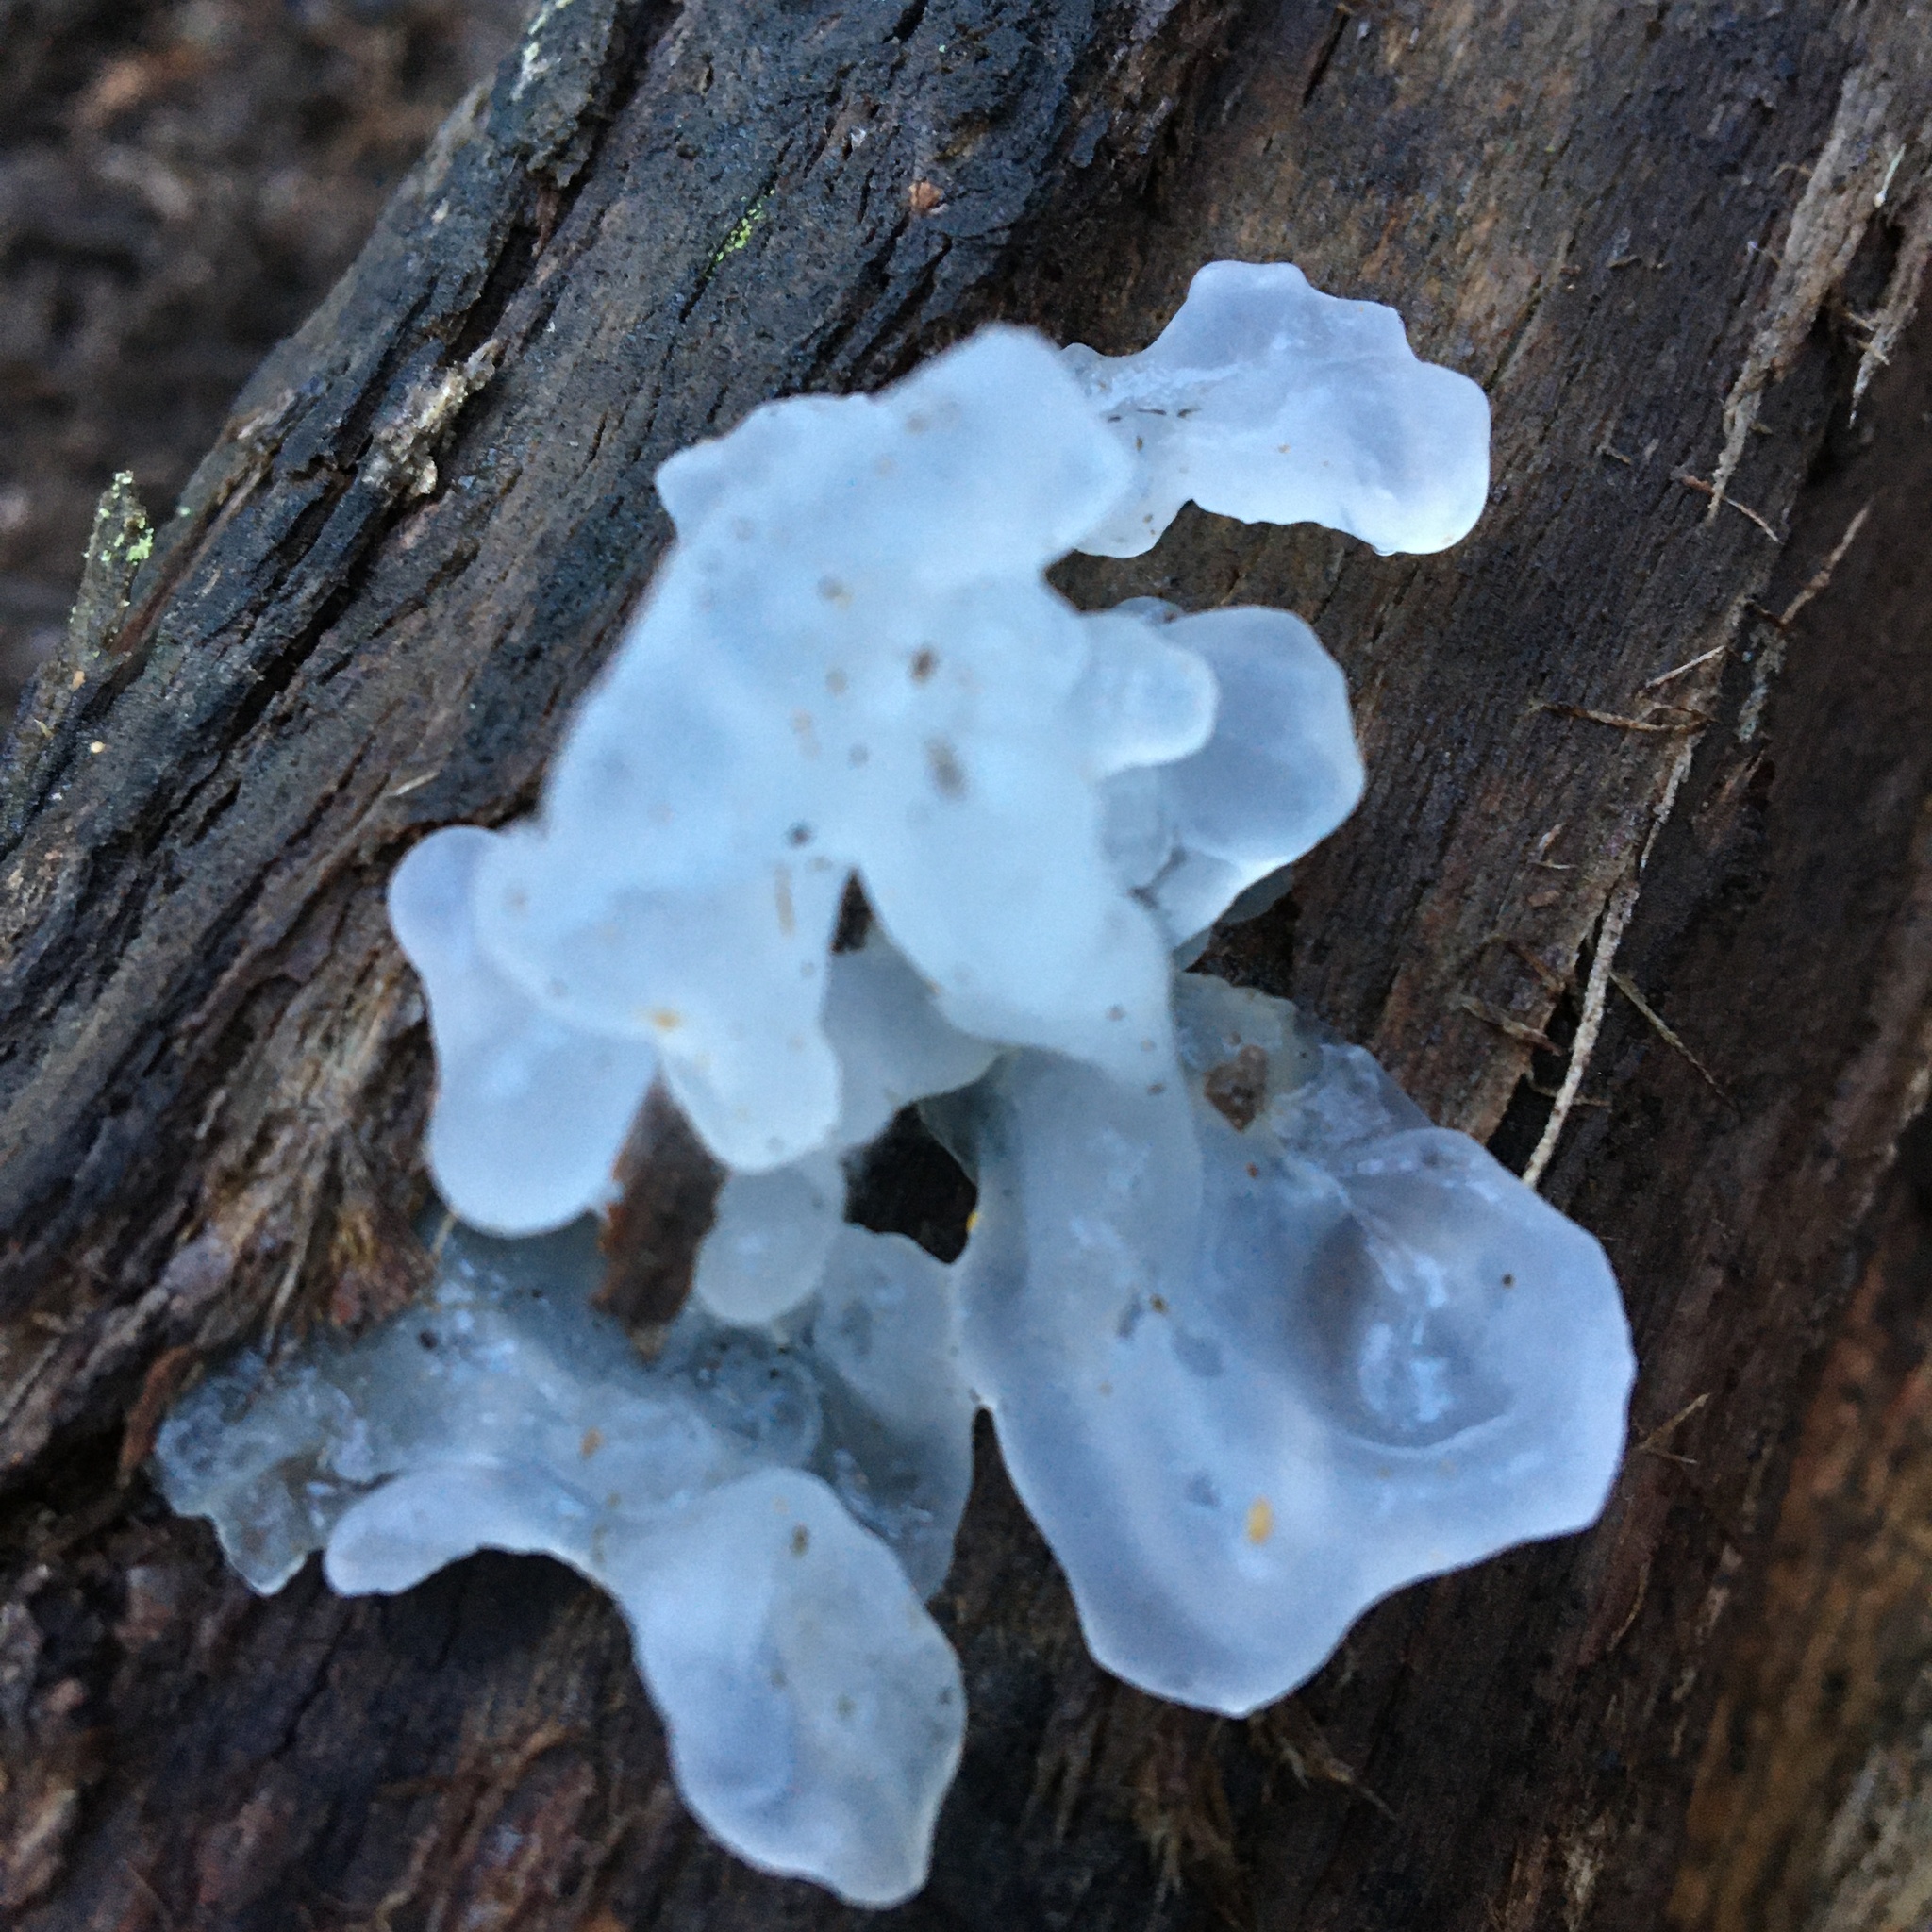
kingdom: Fungi
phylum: Basidiomycota
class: Tremellomycetes
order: Tremellales
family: Tremellaceae
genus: Tremella
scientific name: Tremella fuciformis
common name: Snow fungus
